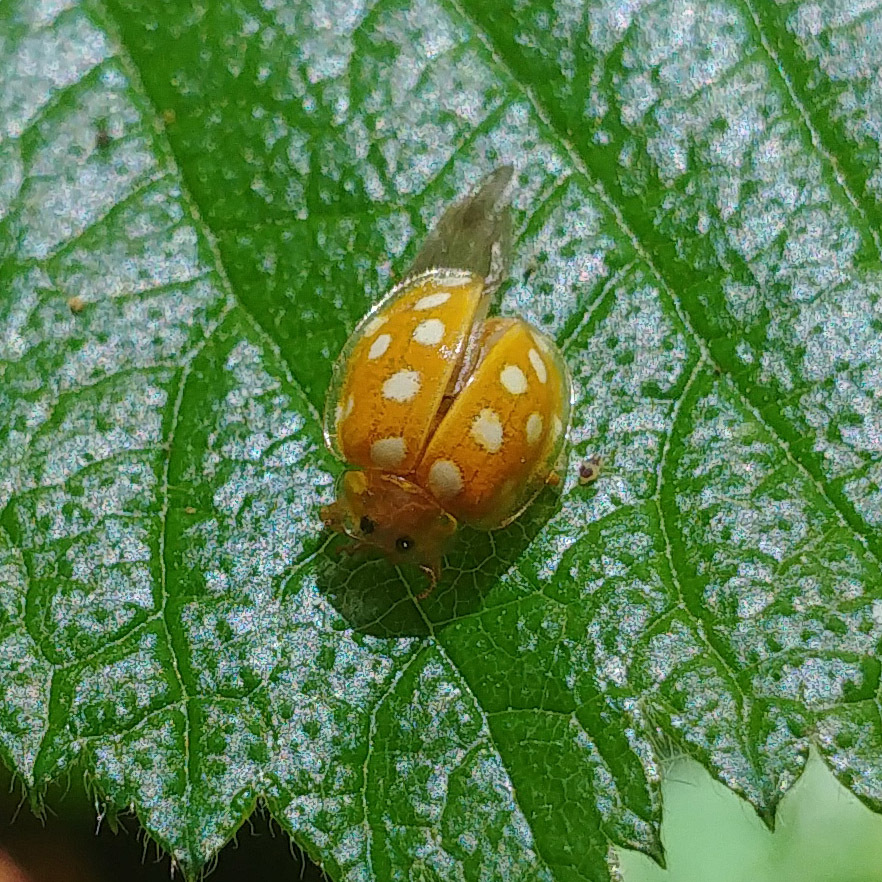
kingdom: Animalia
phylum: Arthropoda
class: Insecta
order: Coleoptera
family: Coccinellidae
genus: Halyzia
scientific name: Halyzia sedecimguttata
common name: Orange ladybird
